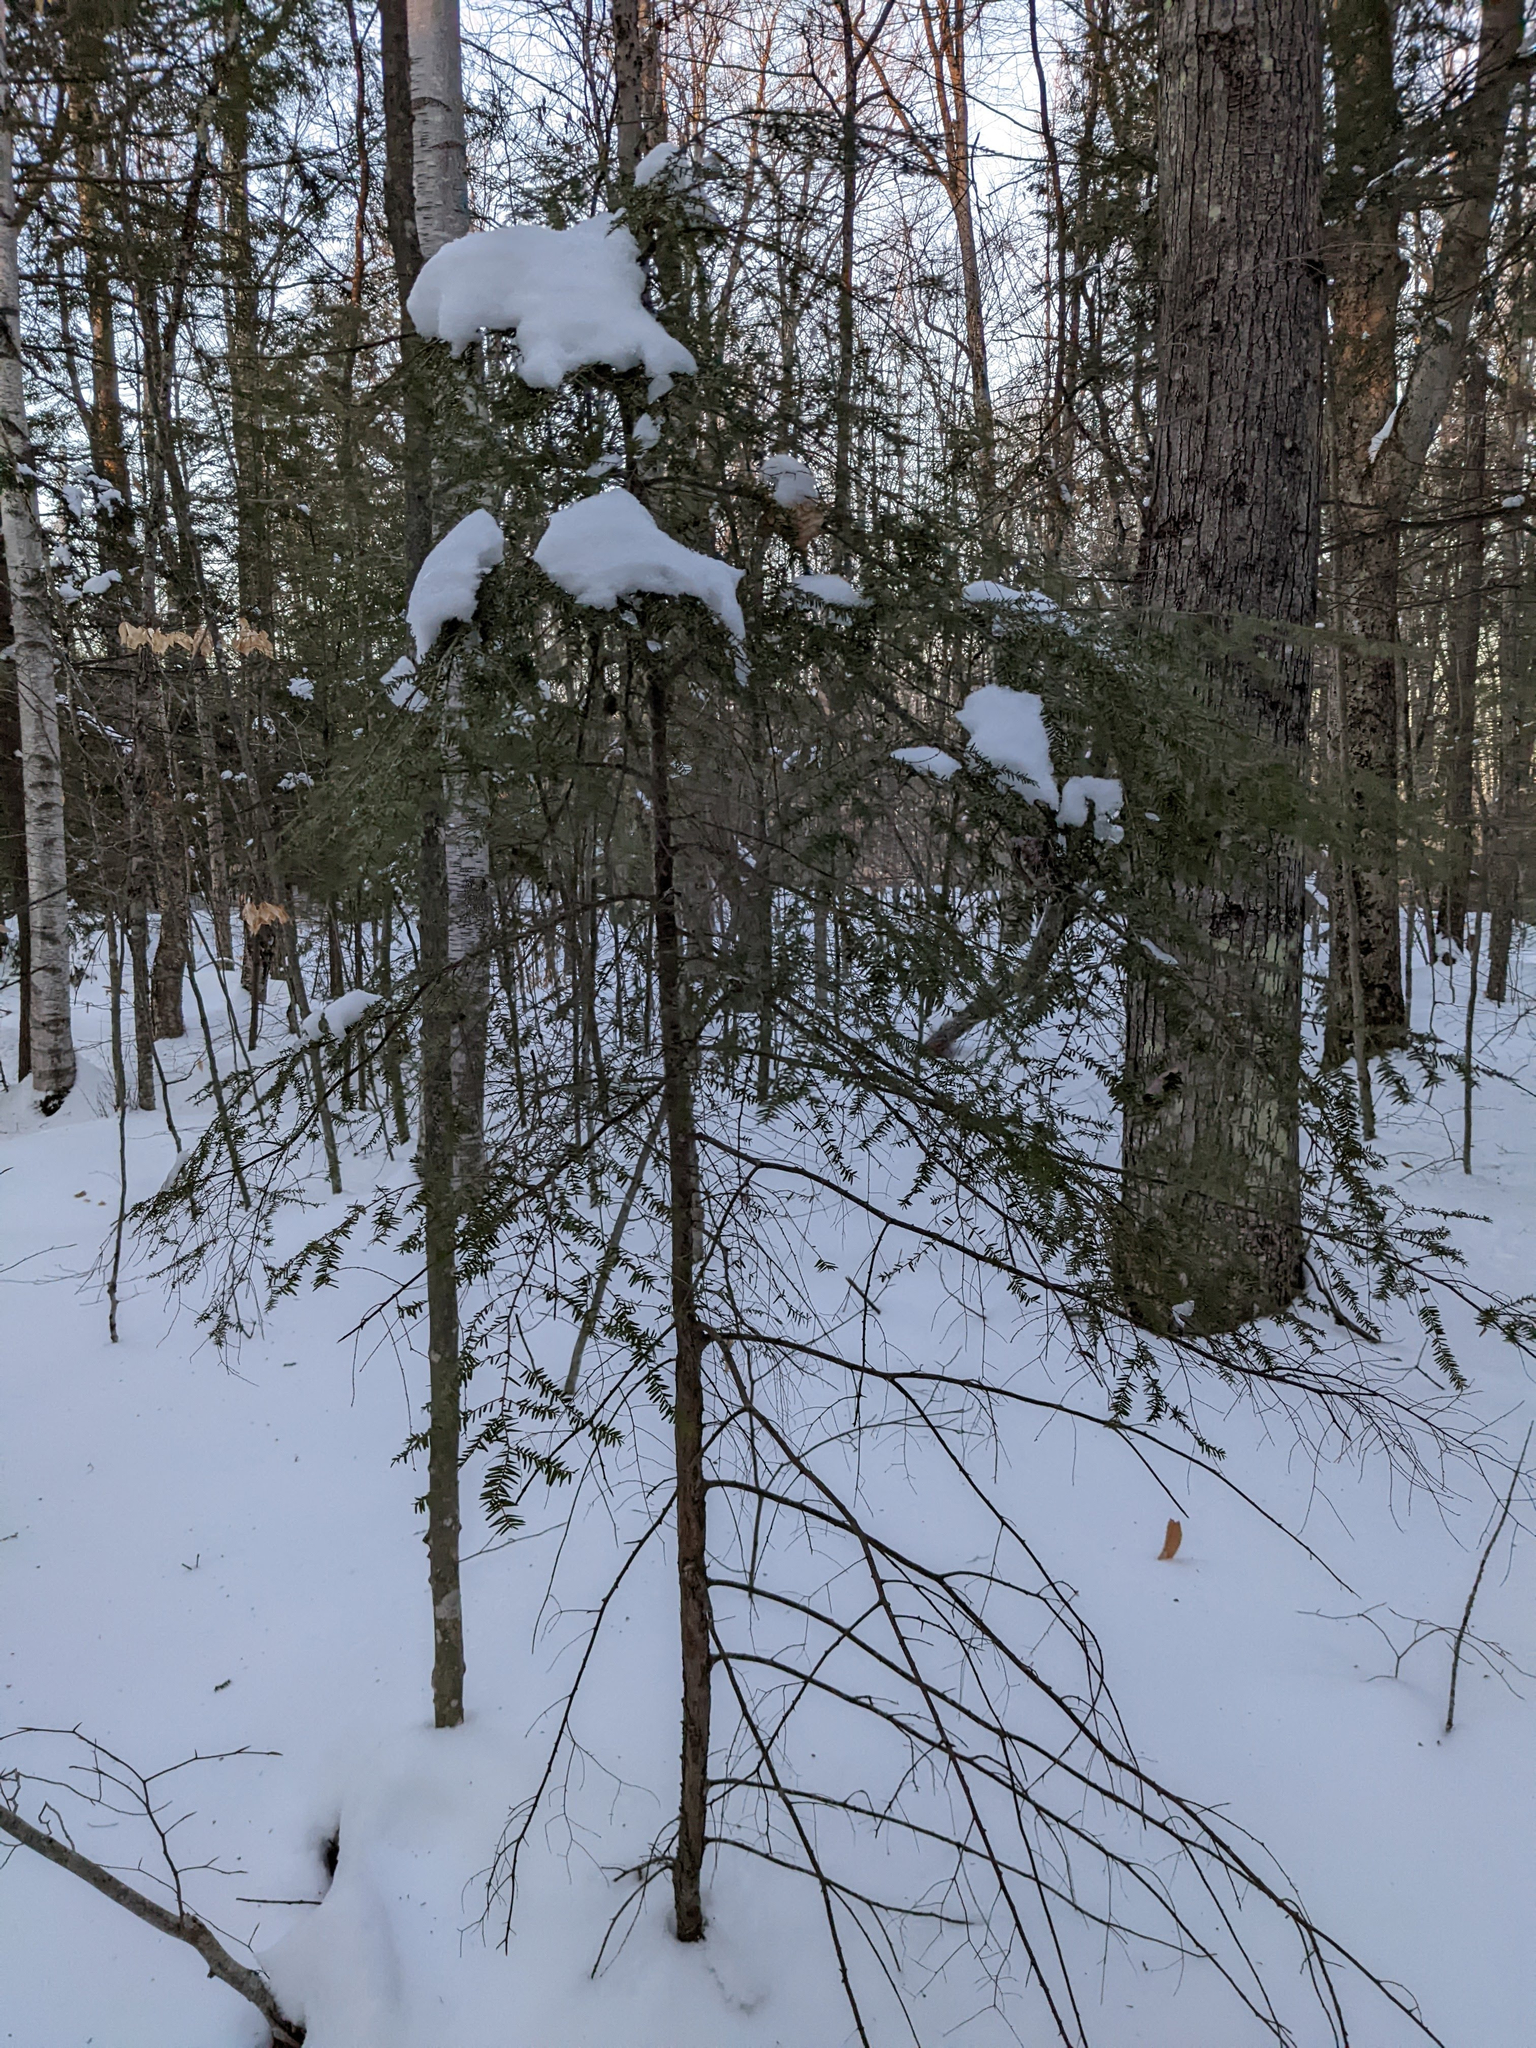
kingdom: Plantae
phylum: Tracheophyta
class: Pinopsida
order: Pinales
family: Pinaceae
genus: Tsuga
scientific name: Tsuga canadensis
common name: Eastern hemlock
